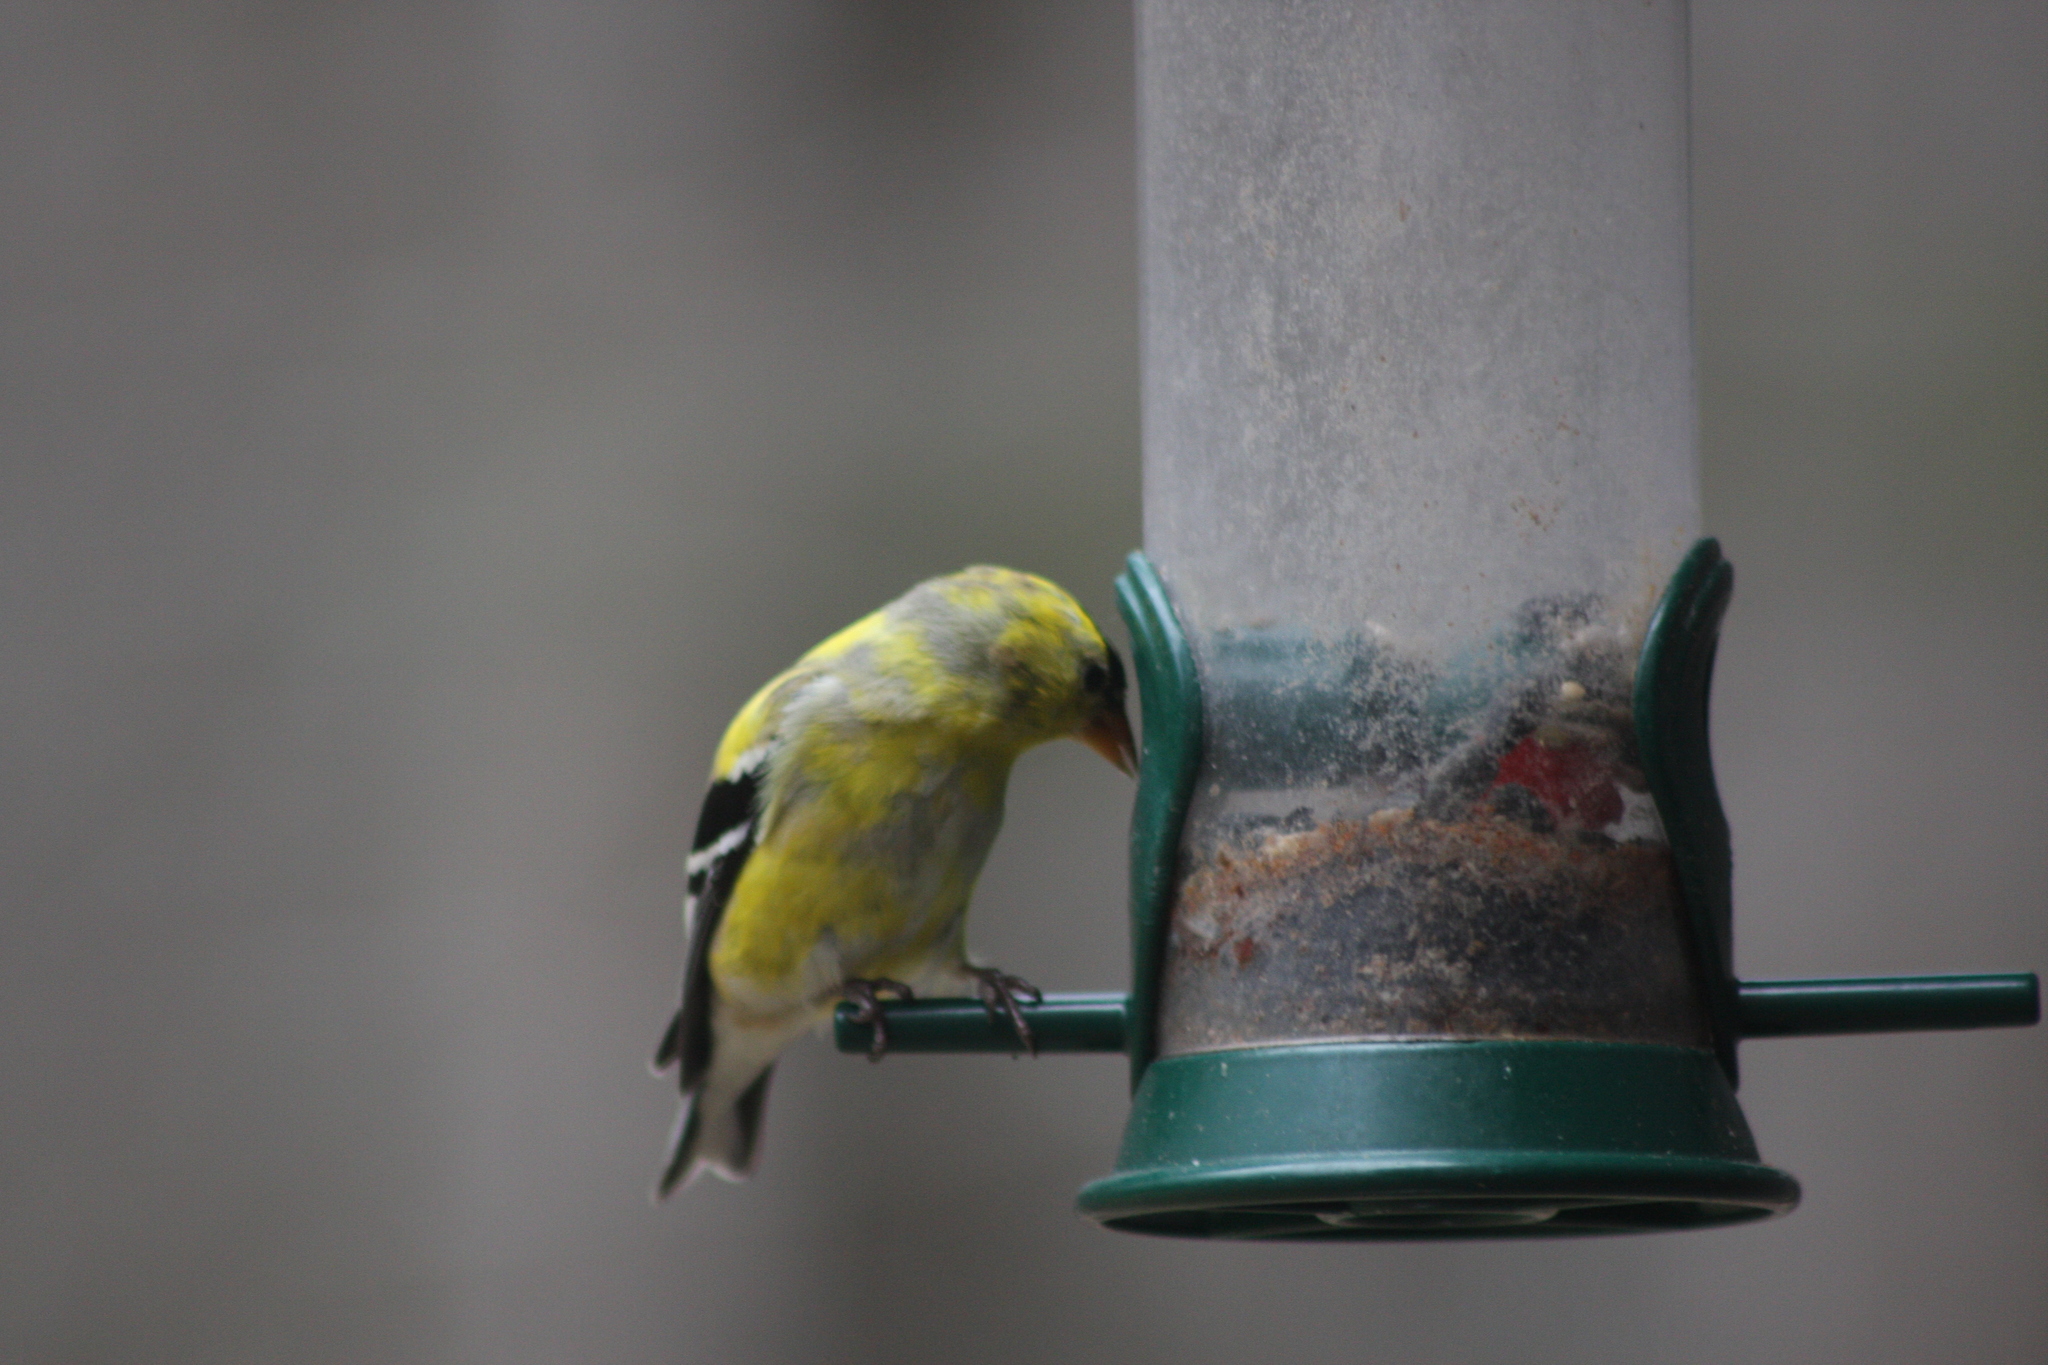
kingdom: Animalia
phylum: Chordata
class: Aves
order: Passeriformes
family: Fringillidae
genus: Spinus
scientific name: Spinus tristis
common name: American goldfinch
